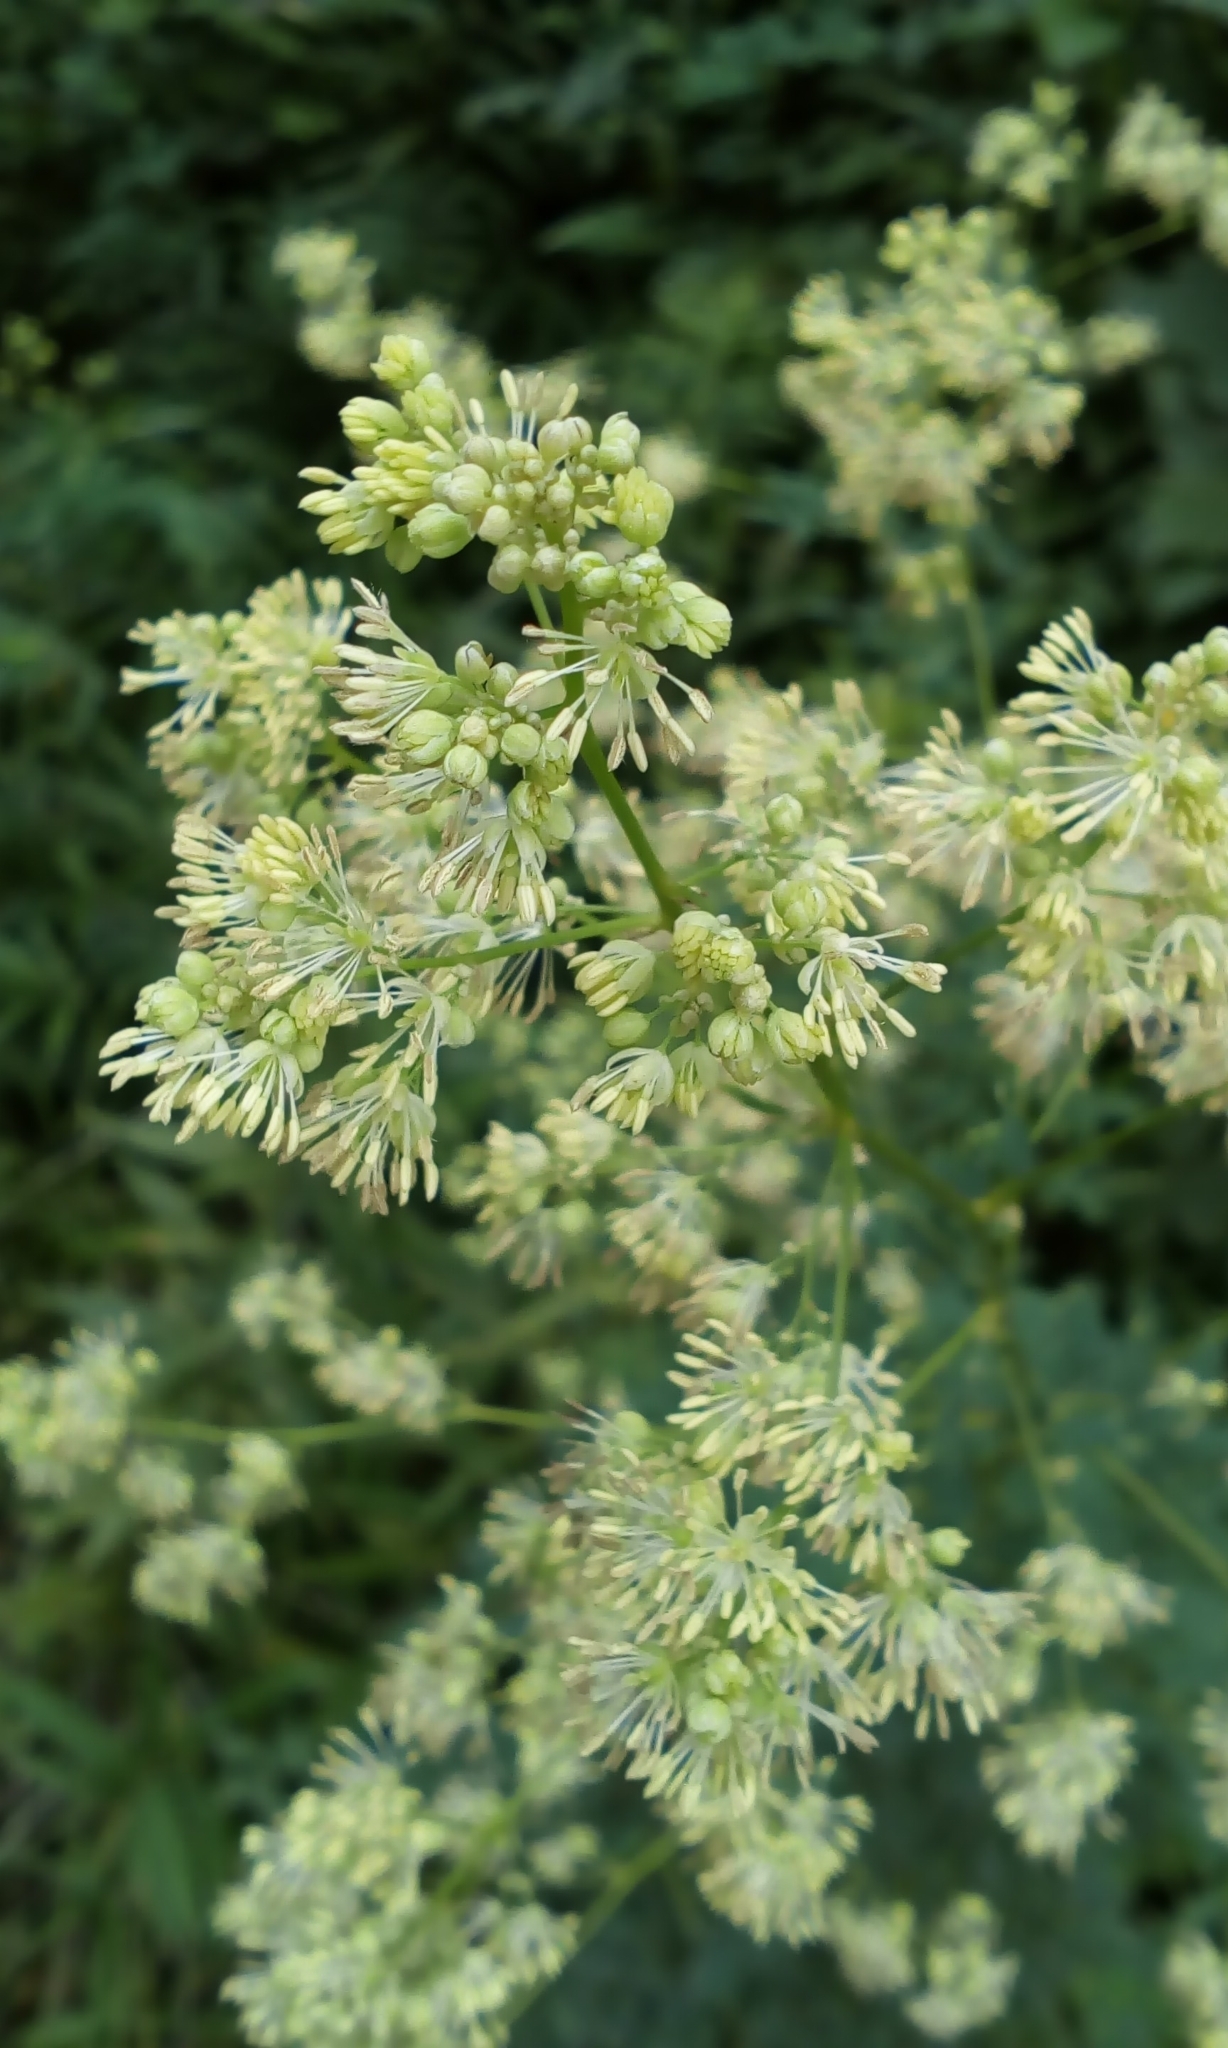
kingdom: Plantae
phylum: Tracheophyta
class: Magnoliopsida
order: Ranunculales
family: Ranunculaceae
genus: Thalictrum
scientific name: Thalictrum minus
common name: Lesser meadow-rue
